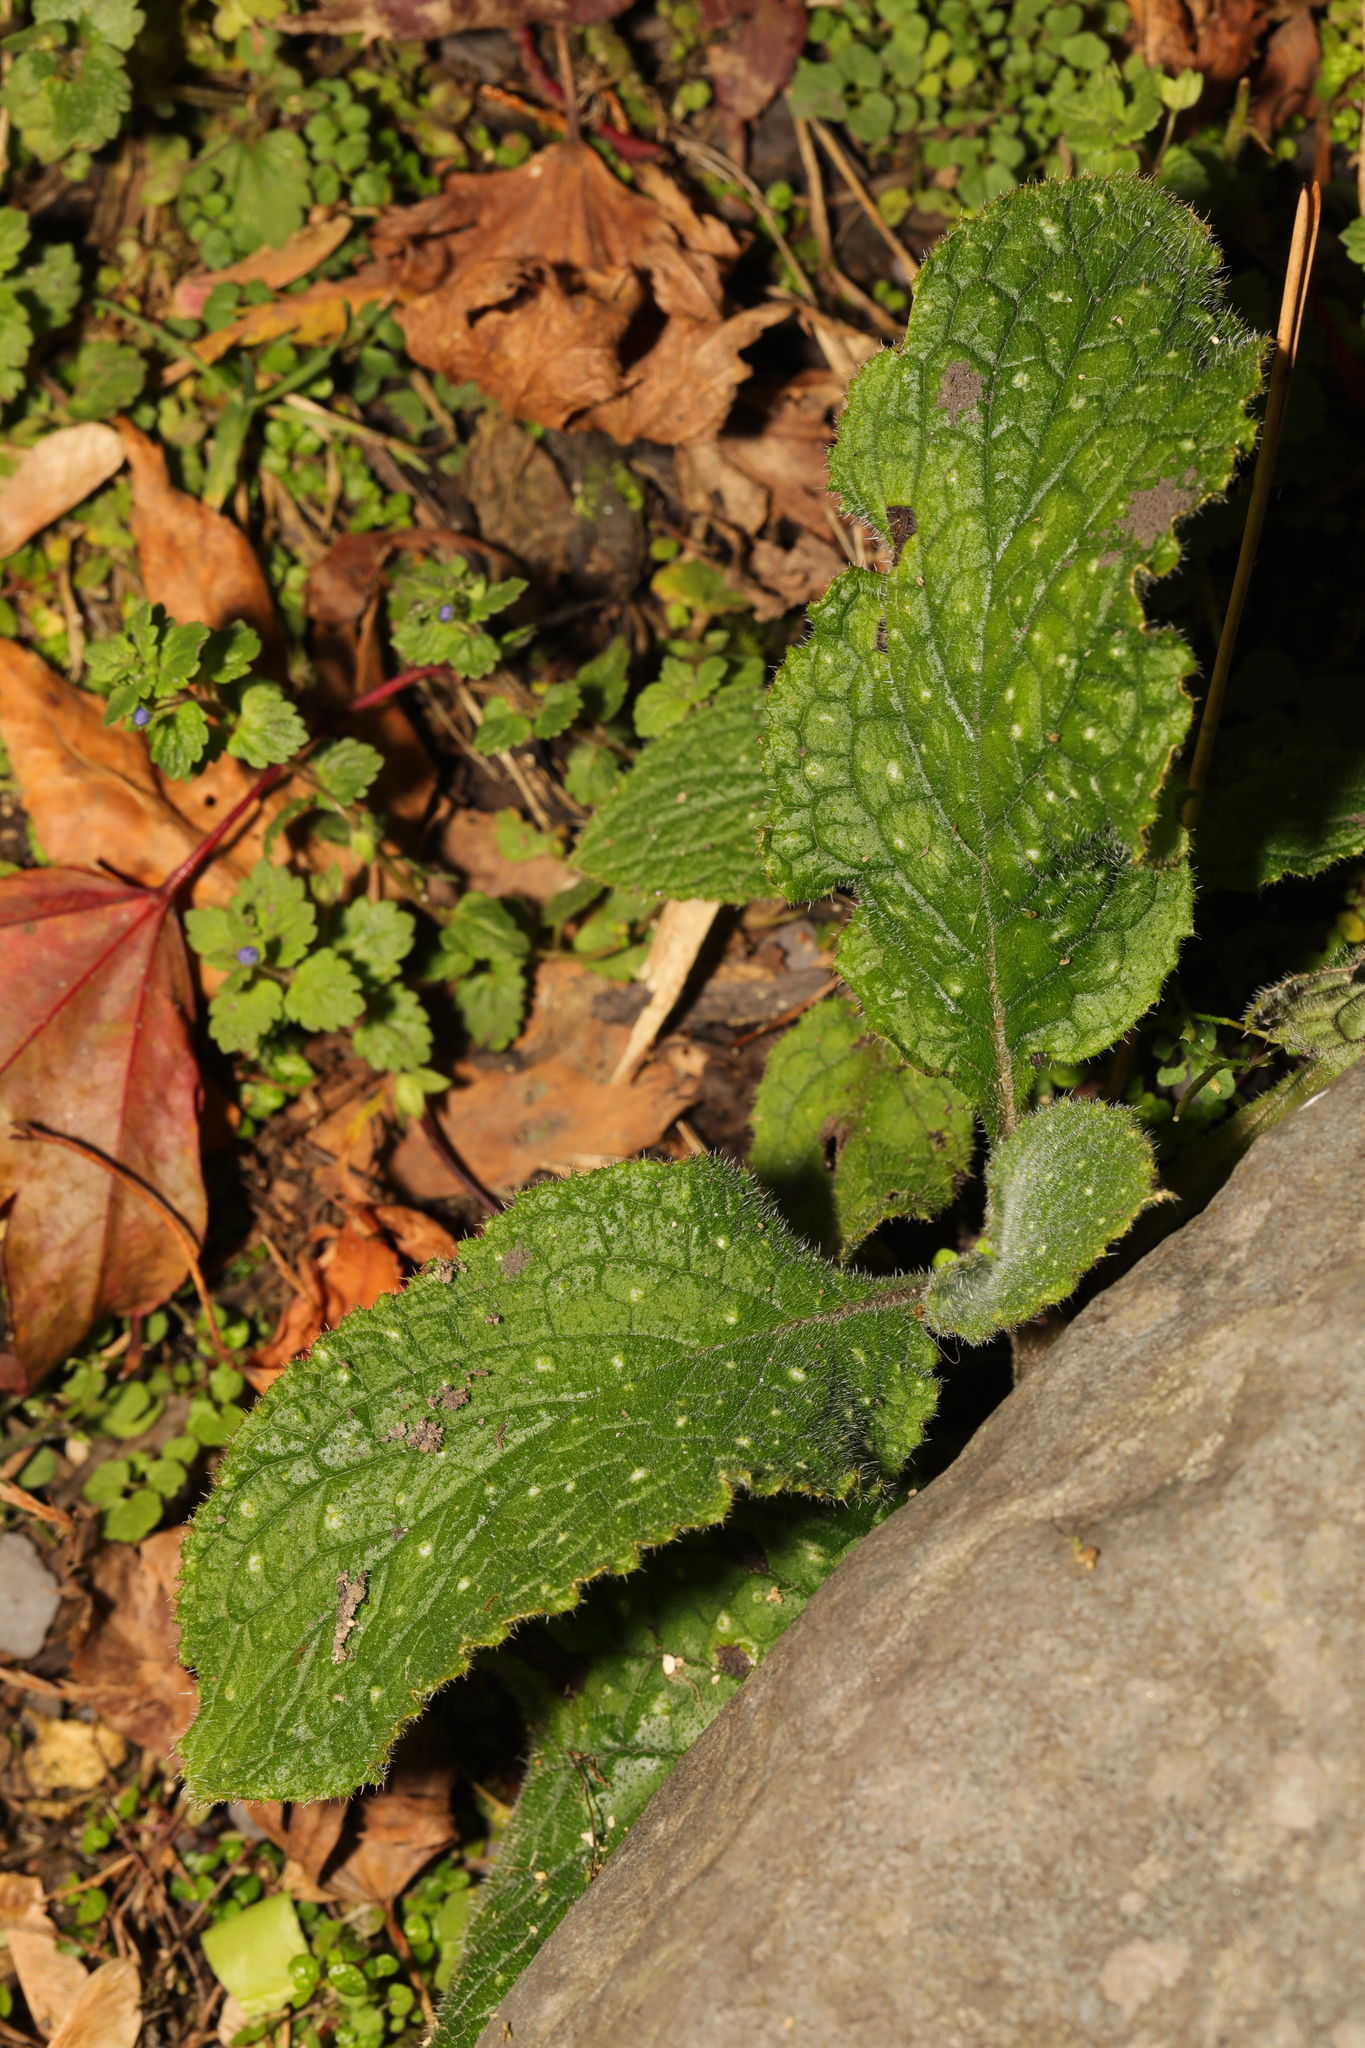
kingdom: Plantae
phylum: Tracheophyta
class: Magnoliopsida
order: Boraginales
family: Boraginaceae
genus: Pentaglottis
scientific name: Pentaglottis sempervirens
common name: Green alkanet
